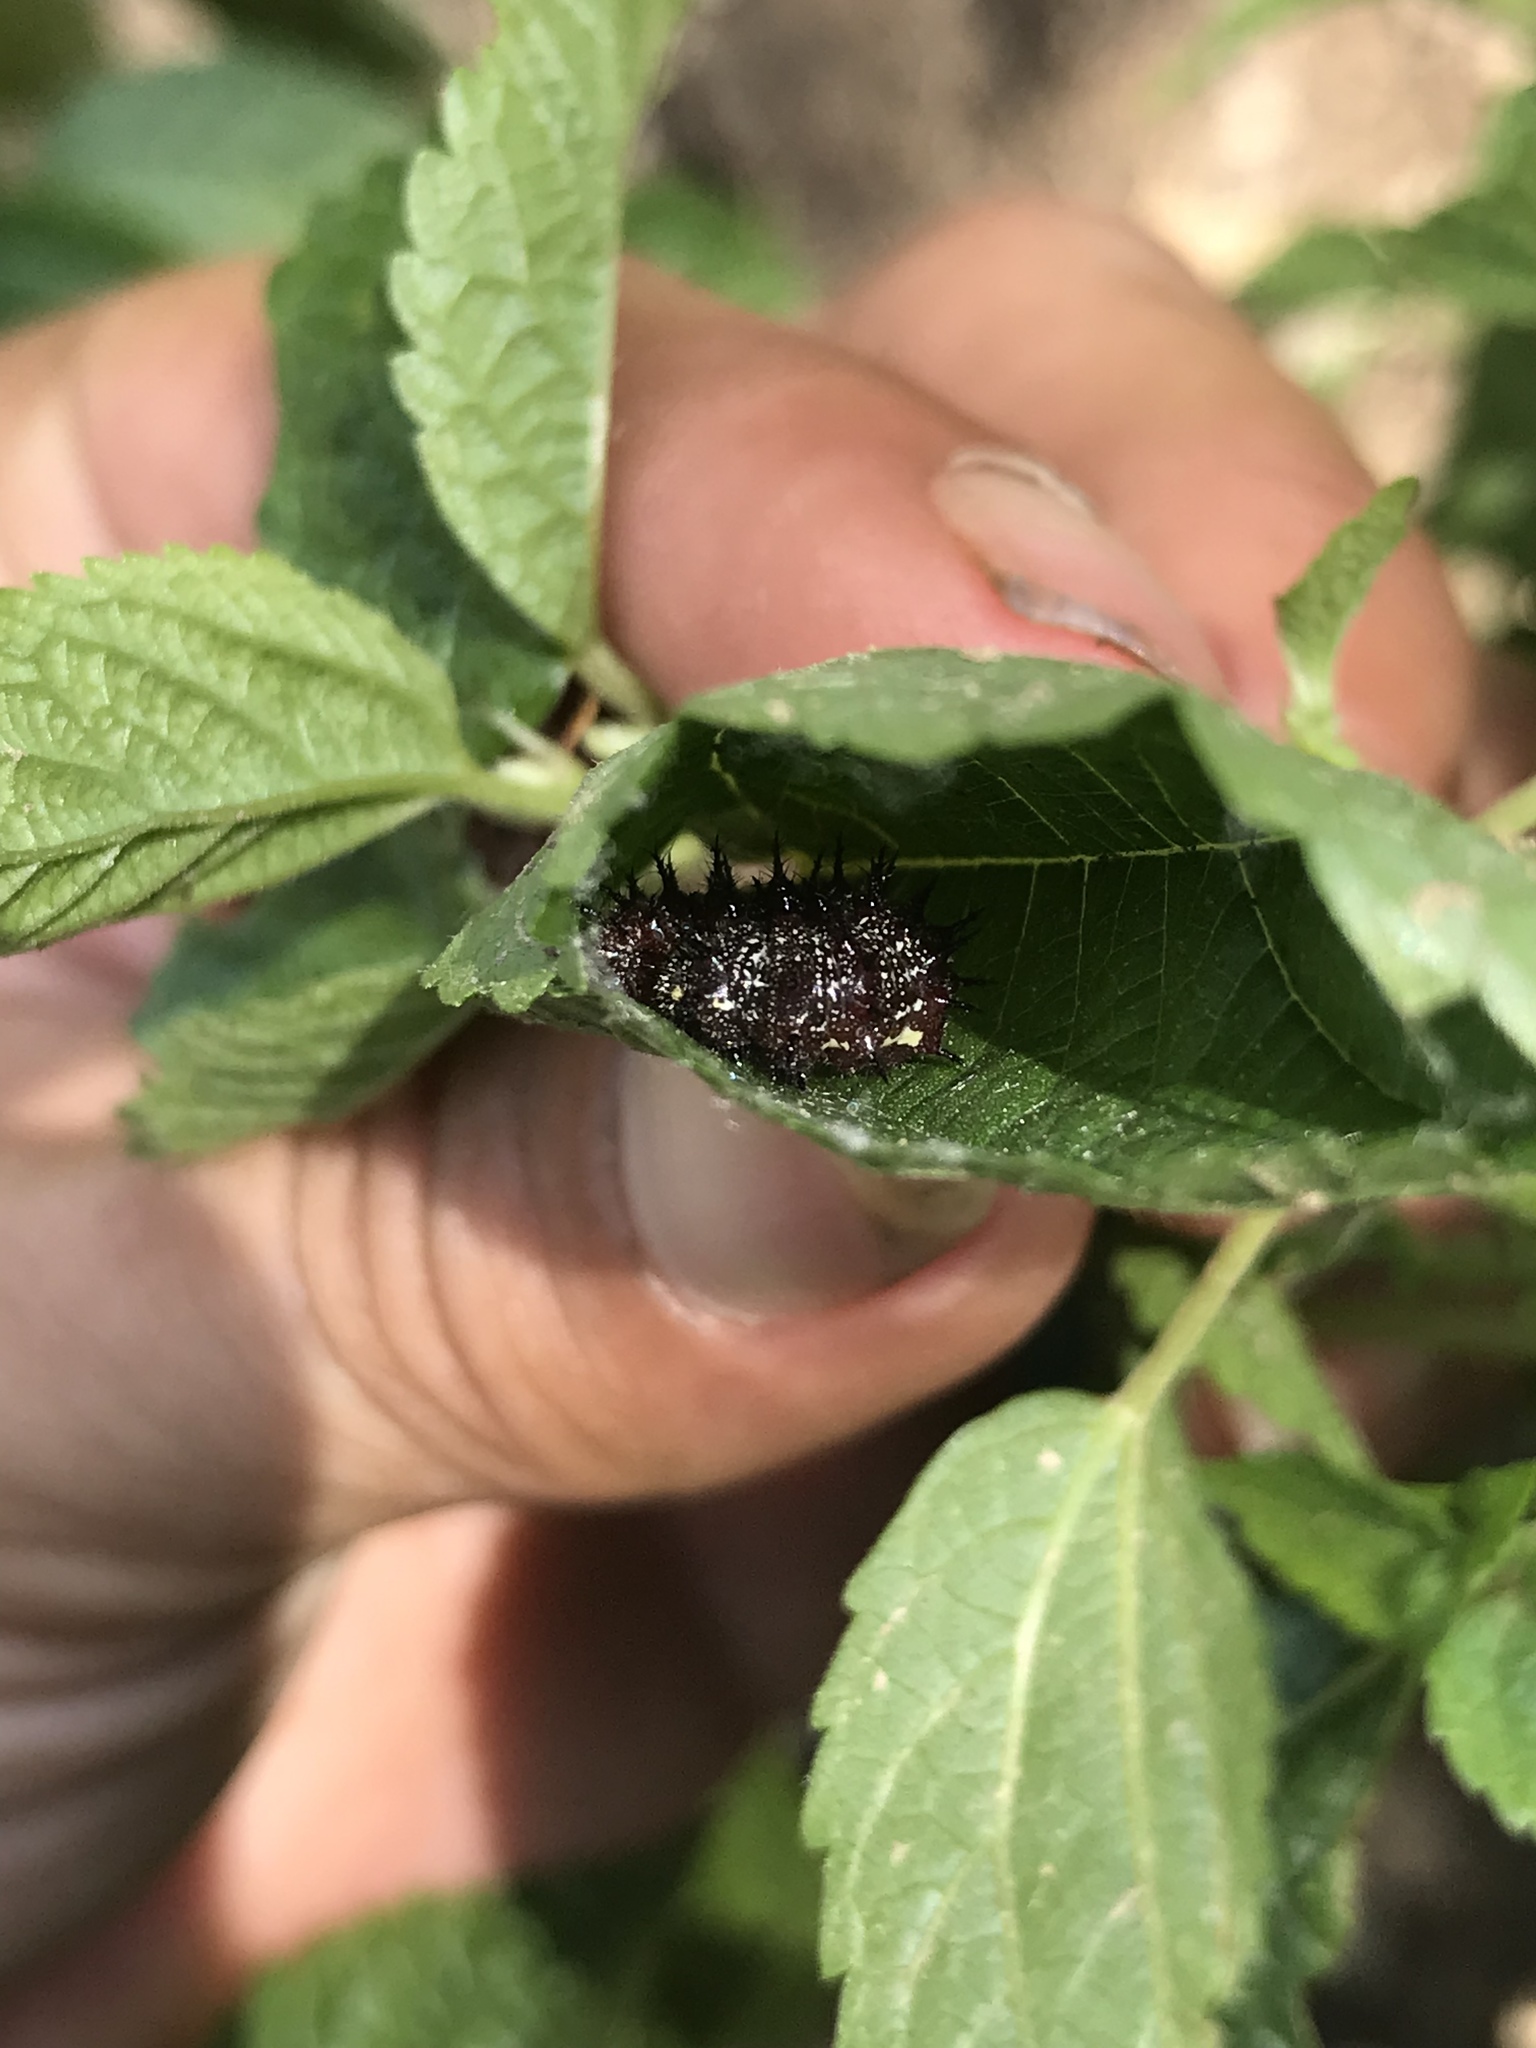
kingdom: Animalia
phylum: Arthropoda
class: Insecta
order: Lepidoptera
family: Nymphalidae
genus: Vanessa
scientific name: Vanessa atalanta
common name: Red admiral
